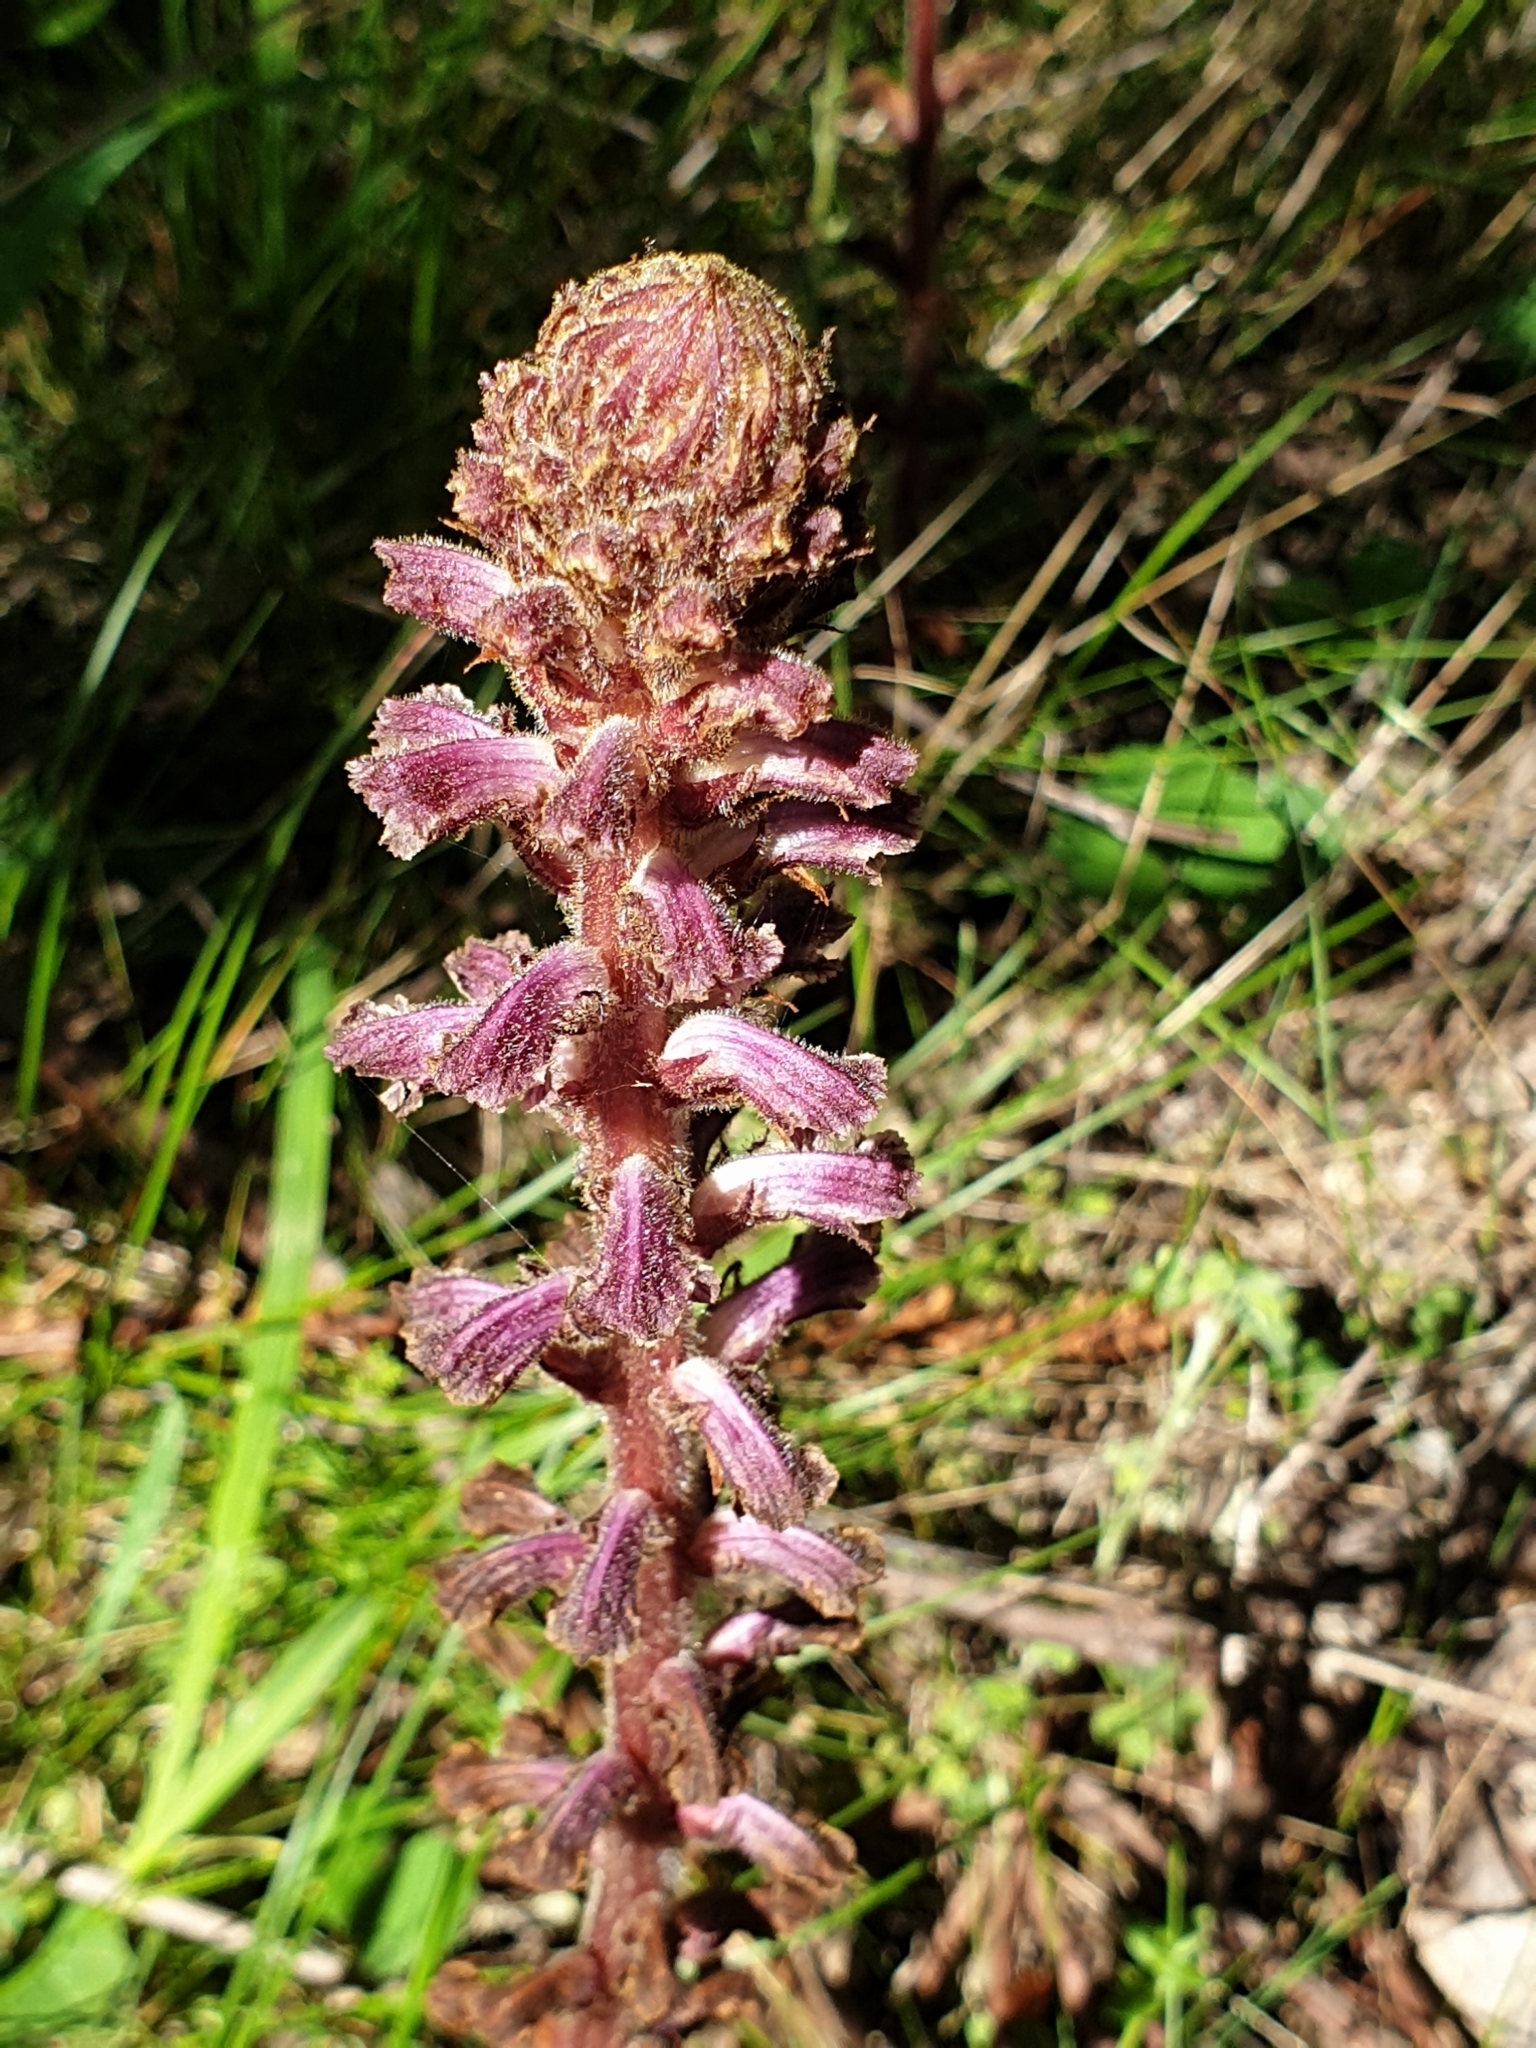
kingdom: Plantae
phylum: Tracheophyta
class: Magnoliopsida
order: Lamiales
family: Orobanchaceae
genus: Orobanche
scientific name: Orobanche minor
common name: Common broomrape
